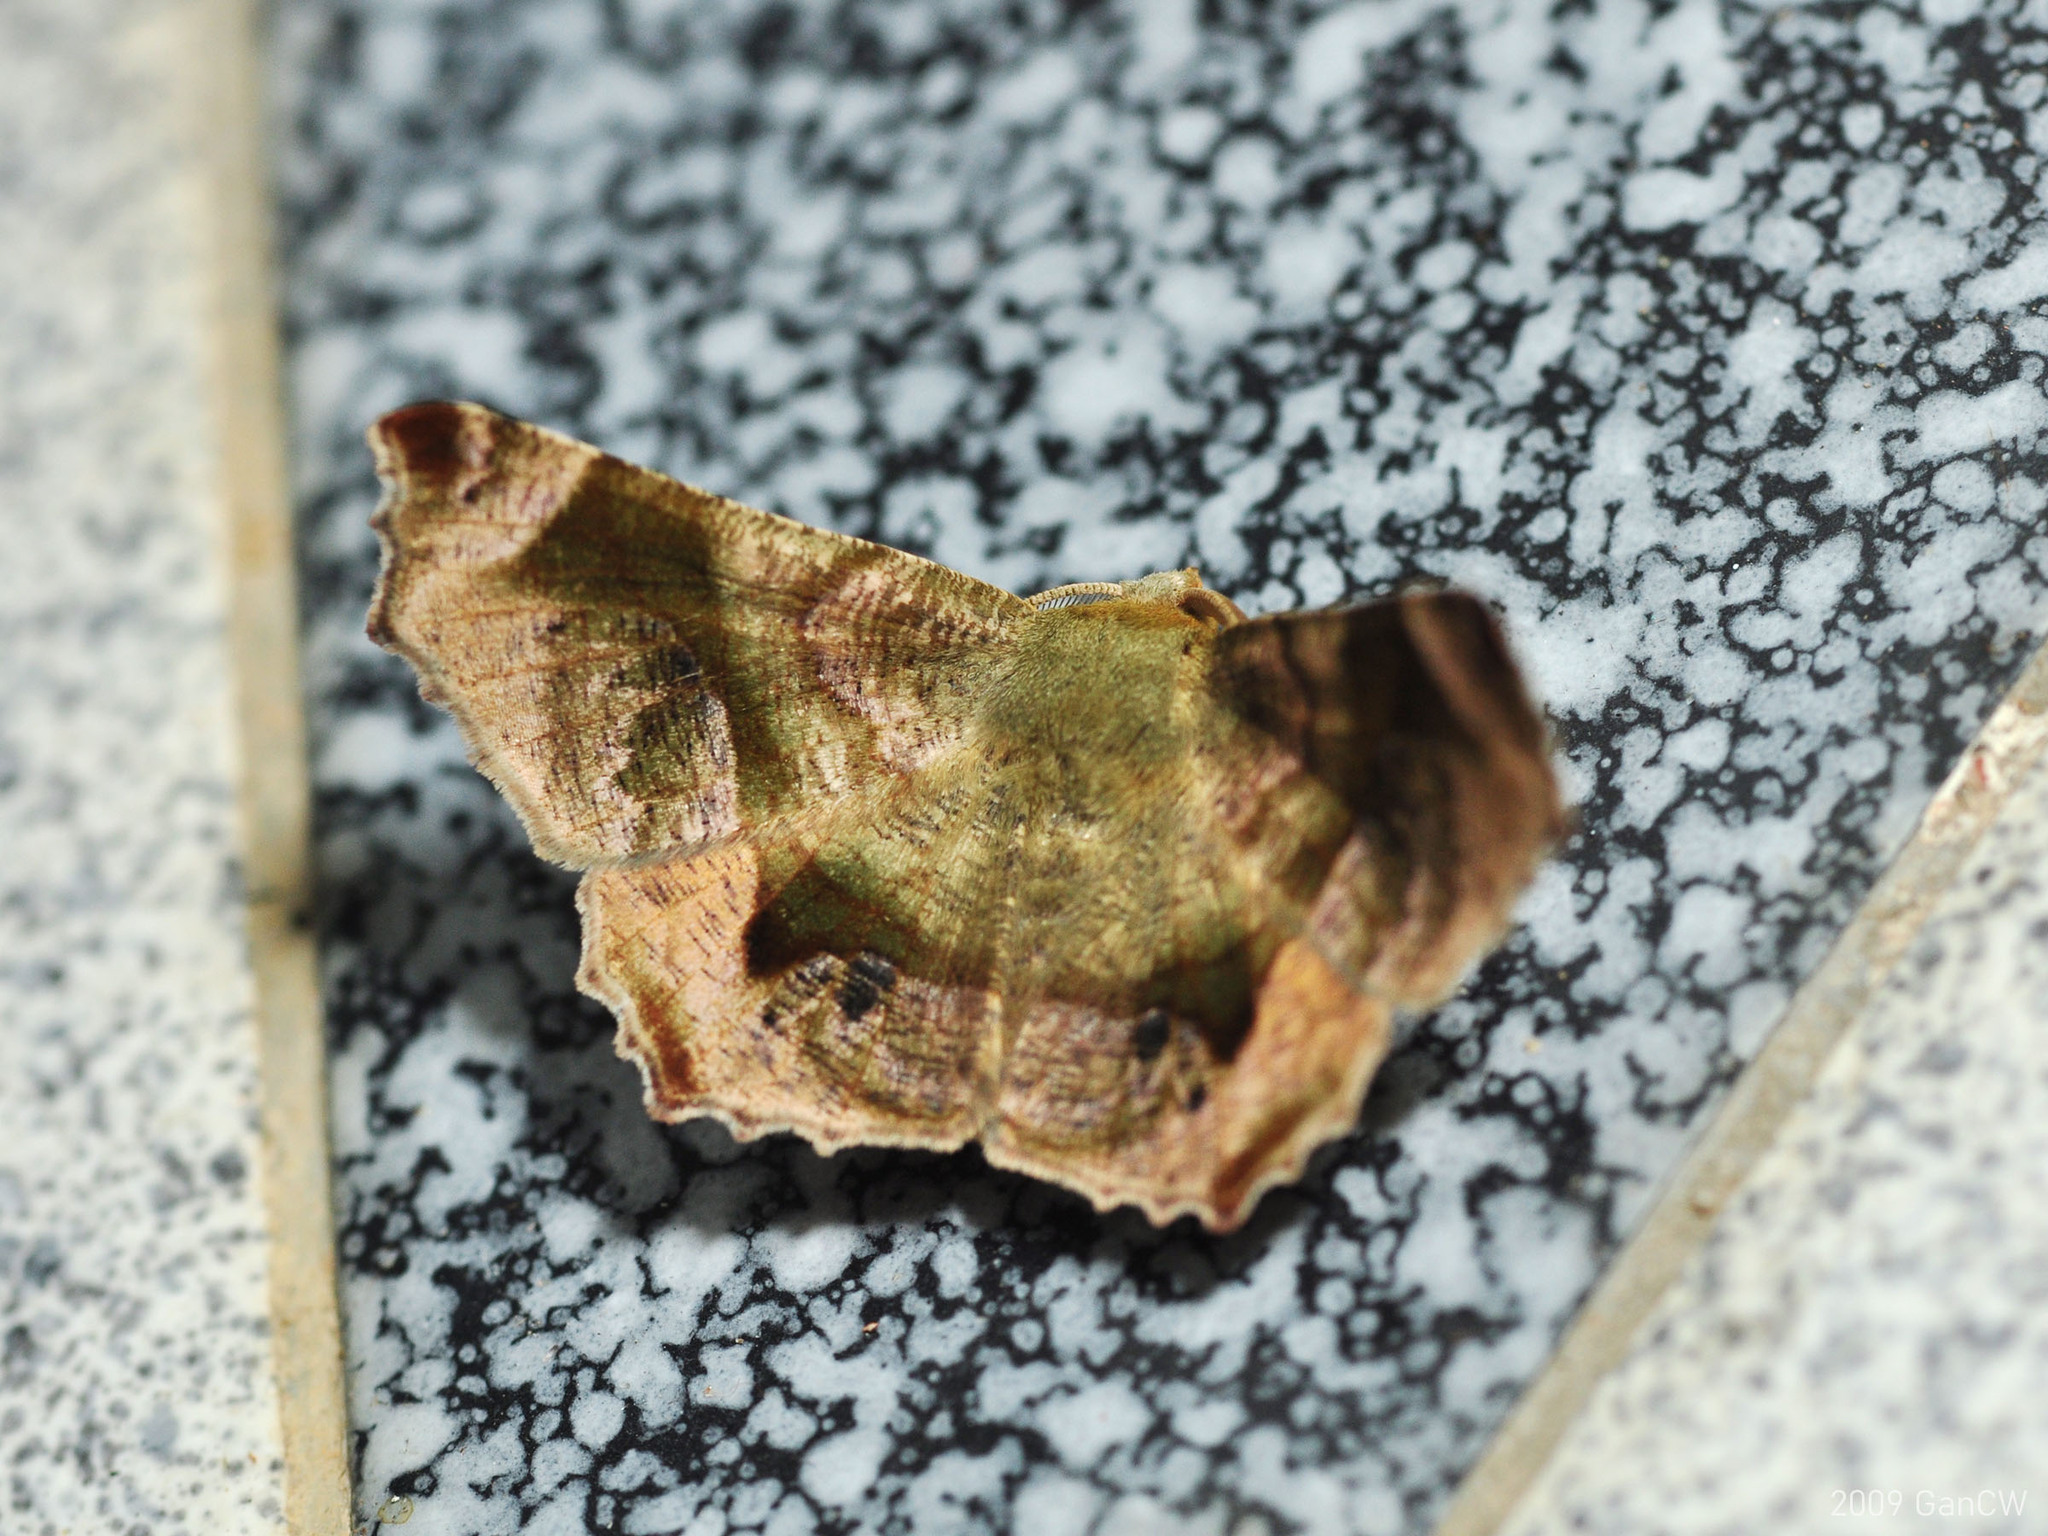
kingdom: Animalia
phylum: Arthropoda
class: Insecta
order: Lepidoptera
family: Geometridae
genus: Mimochroa
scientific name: Mimochroa angulifascia
